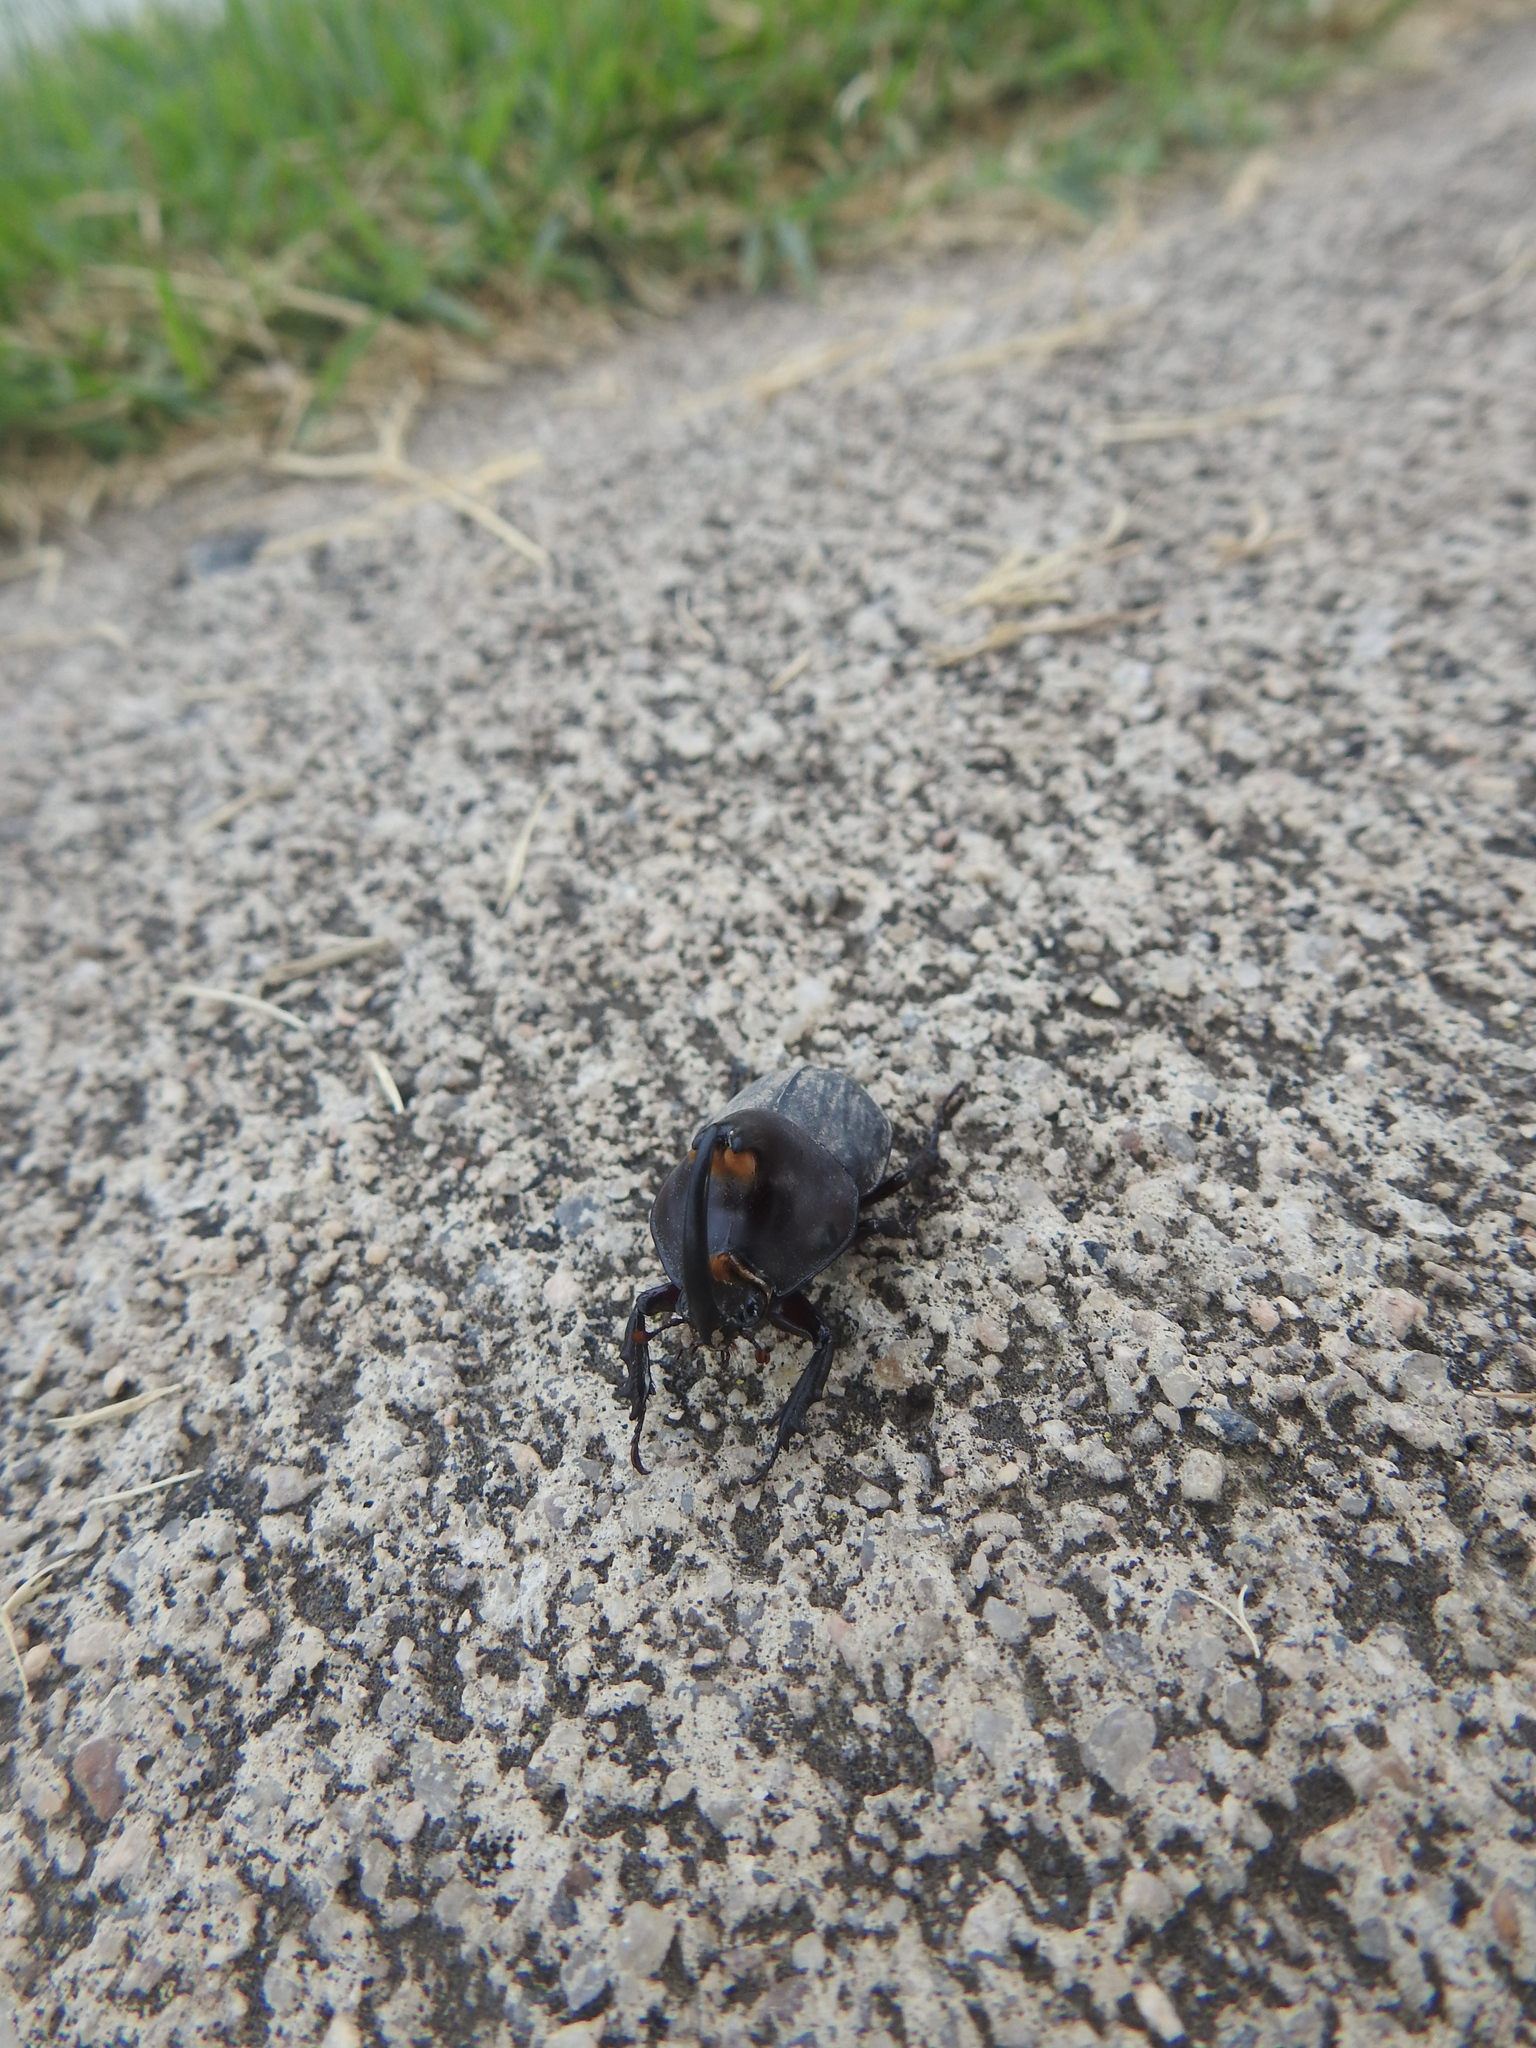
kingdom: Animalia
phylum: Arthropoda
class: Insecta
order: Coleoptera
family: Scarabaeidae
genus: Diloboderus
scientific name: Diloboderus abderus
